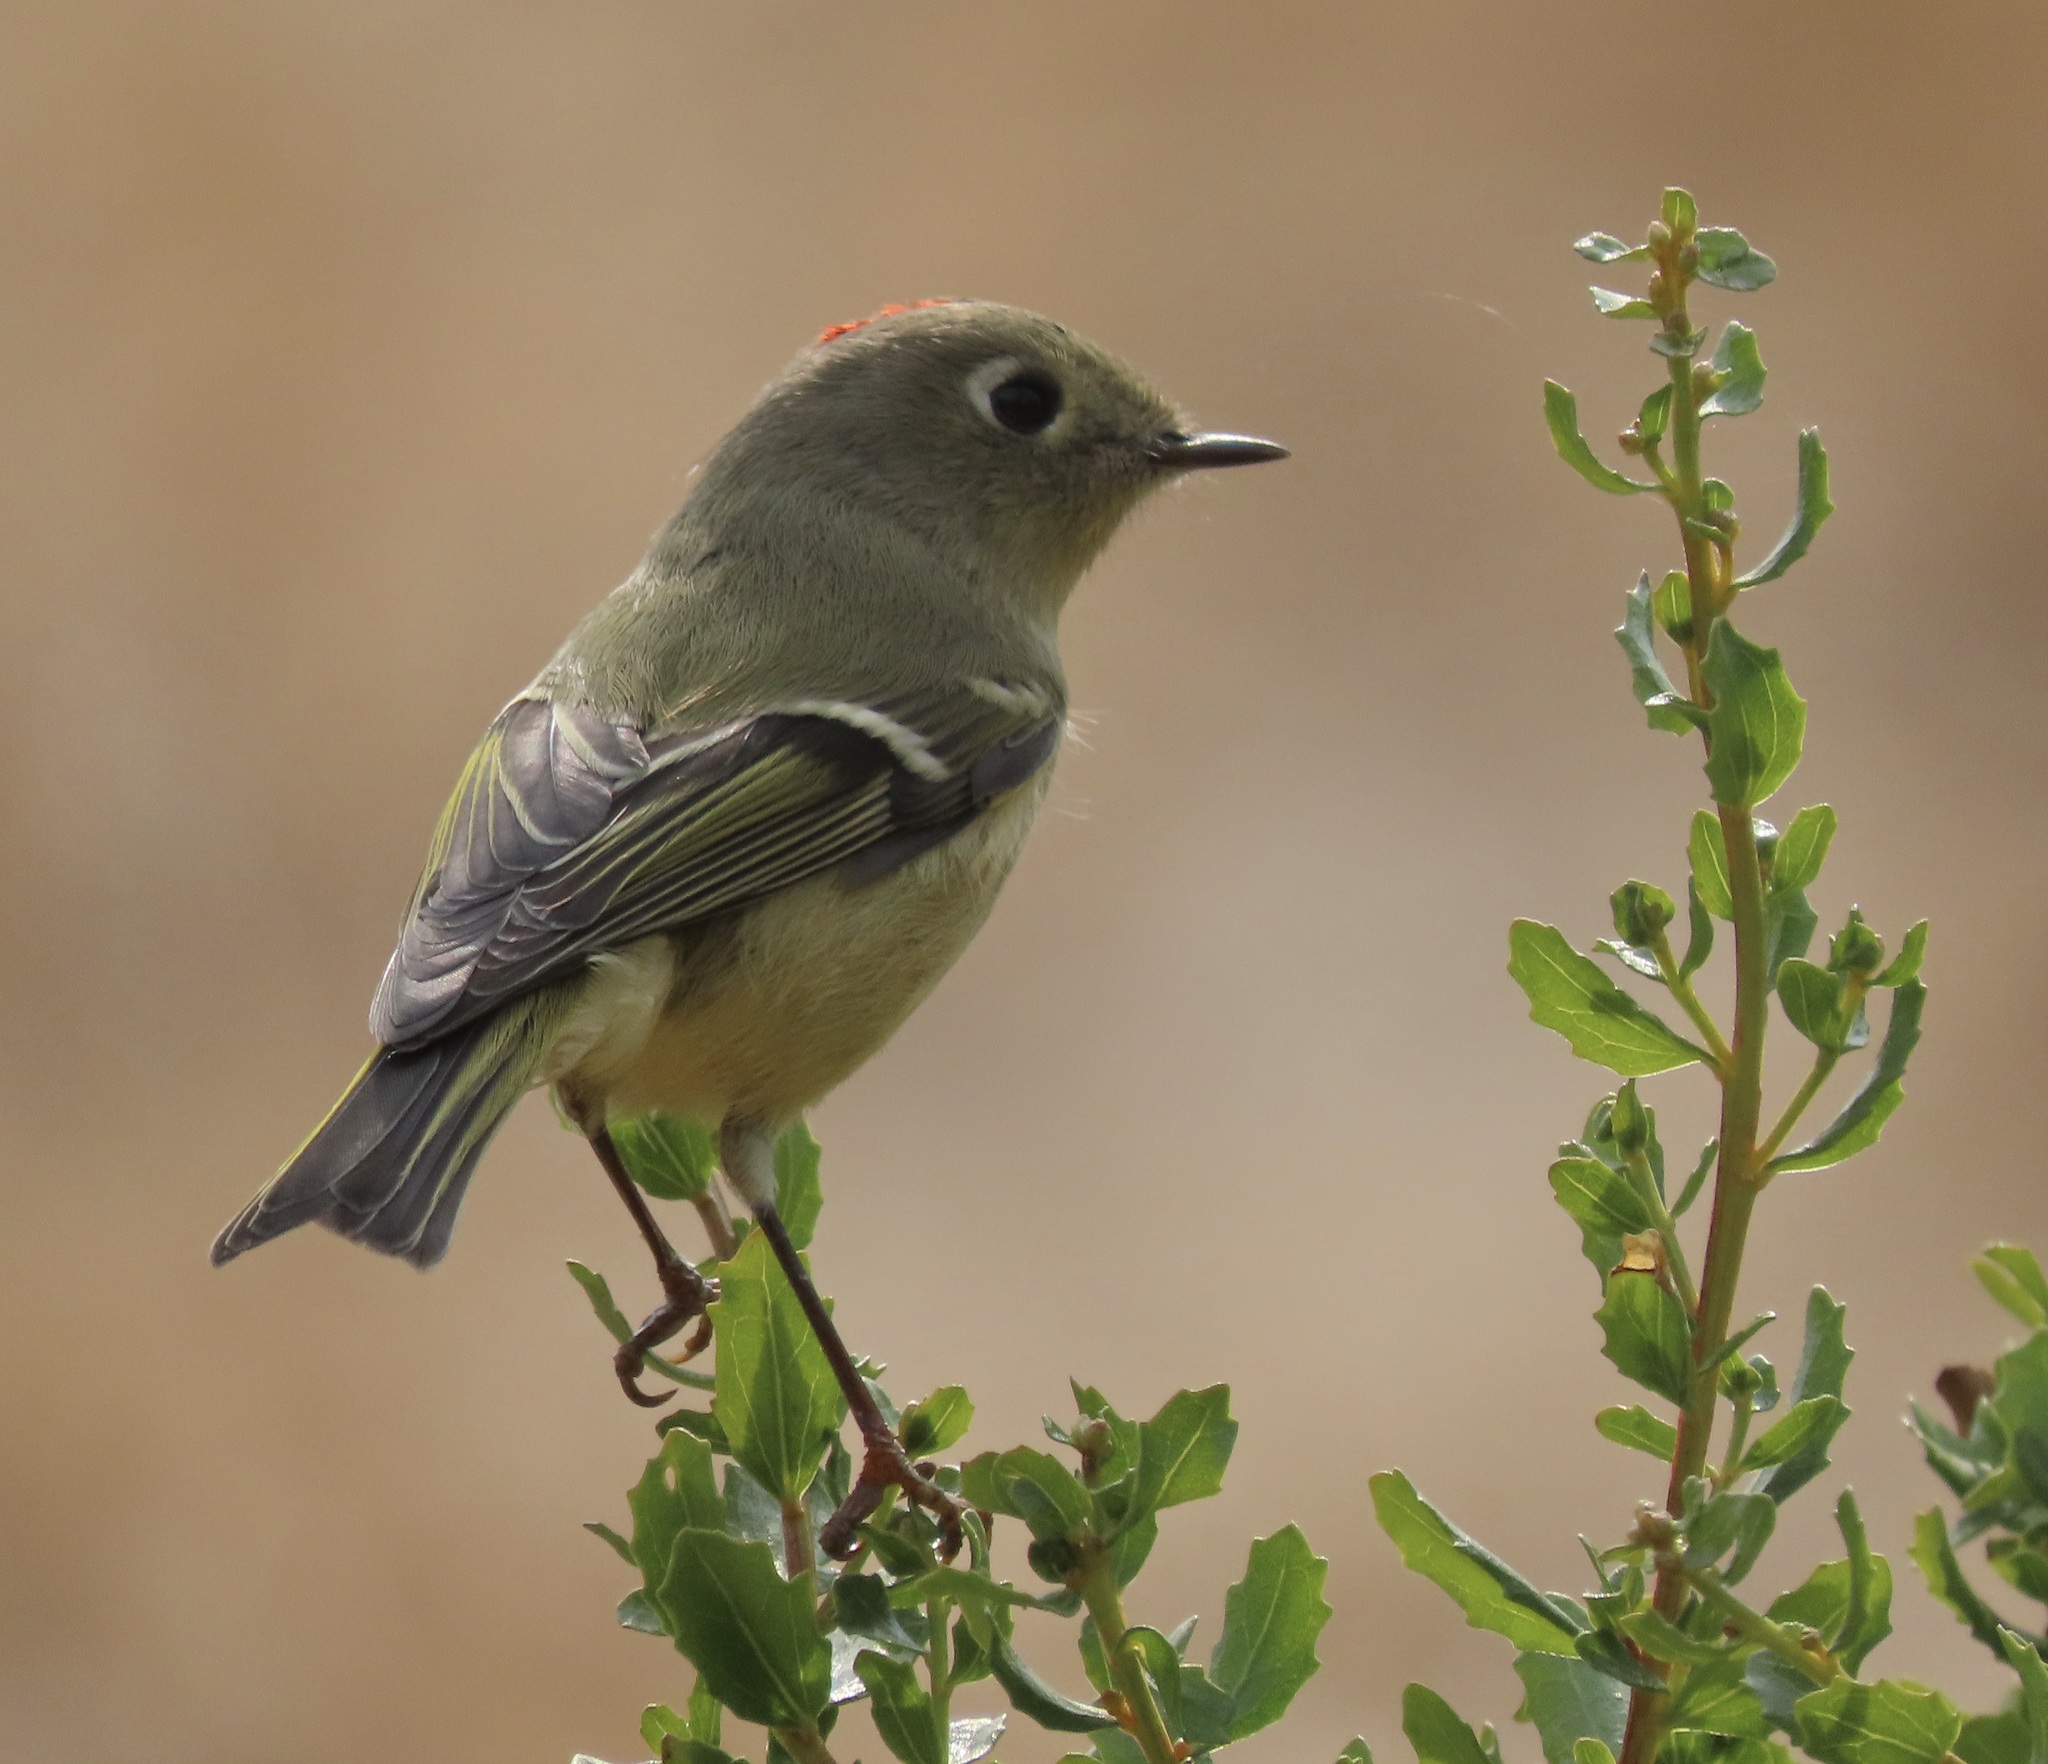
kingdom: Animalia
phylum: Chordata
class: Aves
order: Passeriformes
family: Regulidae
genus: Regulus
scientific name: Regulus calendula
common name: Ruby-crowned kinglet
